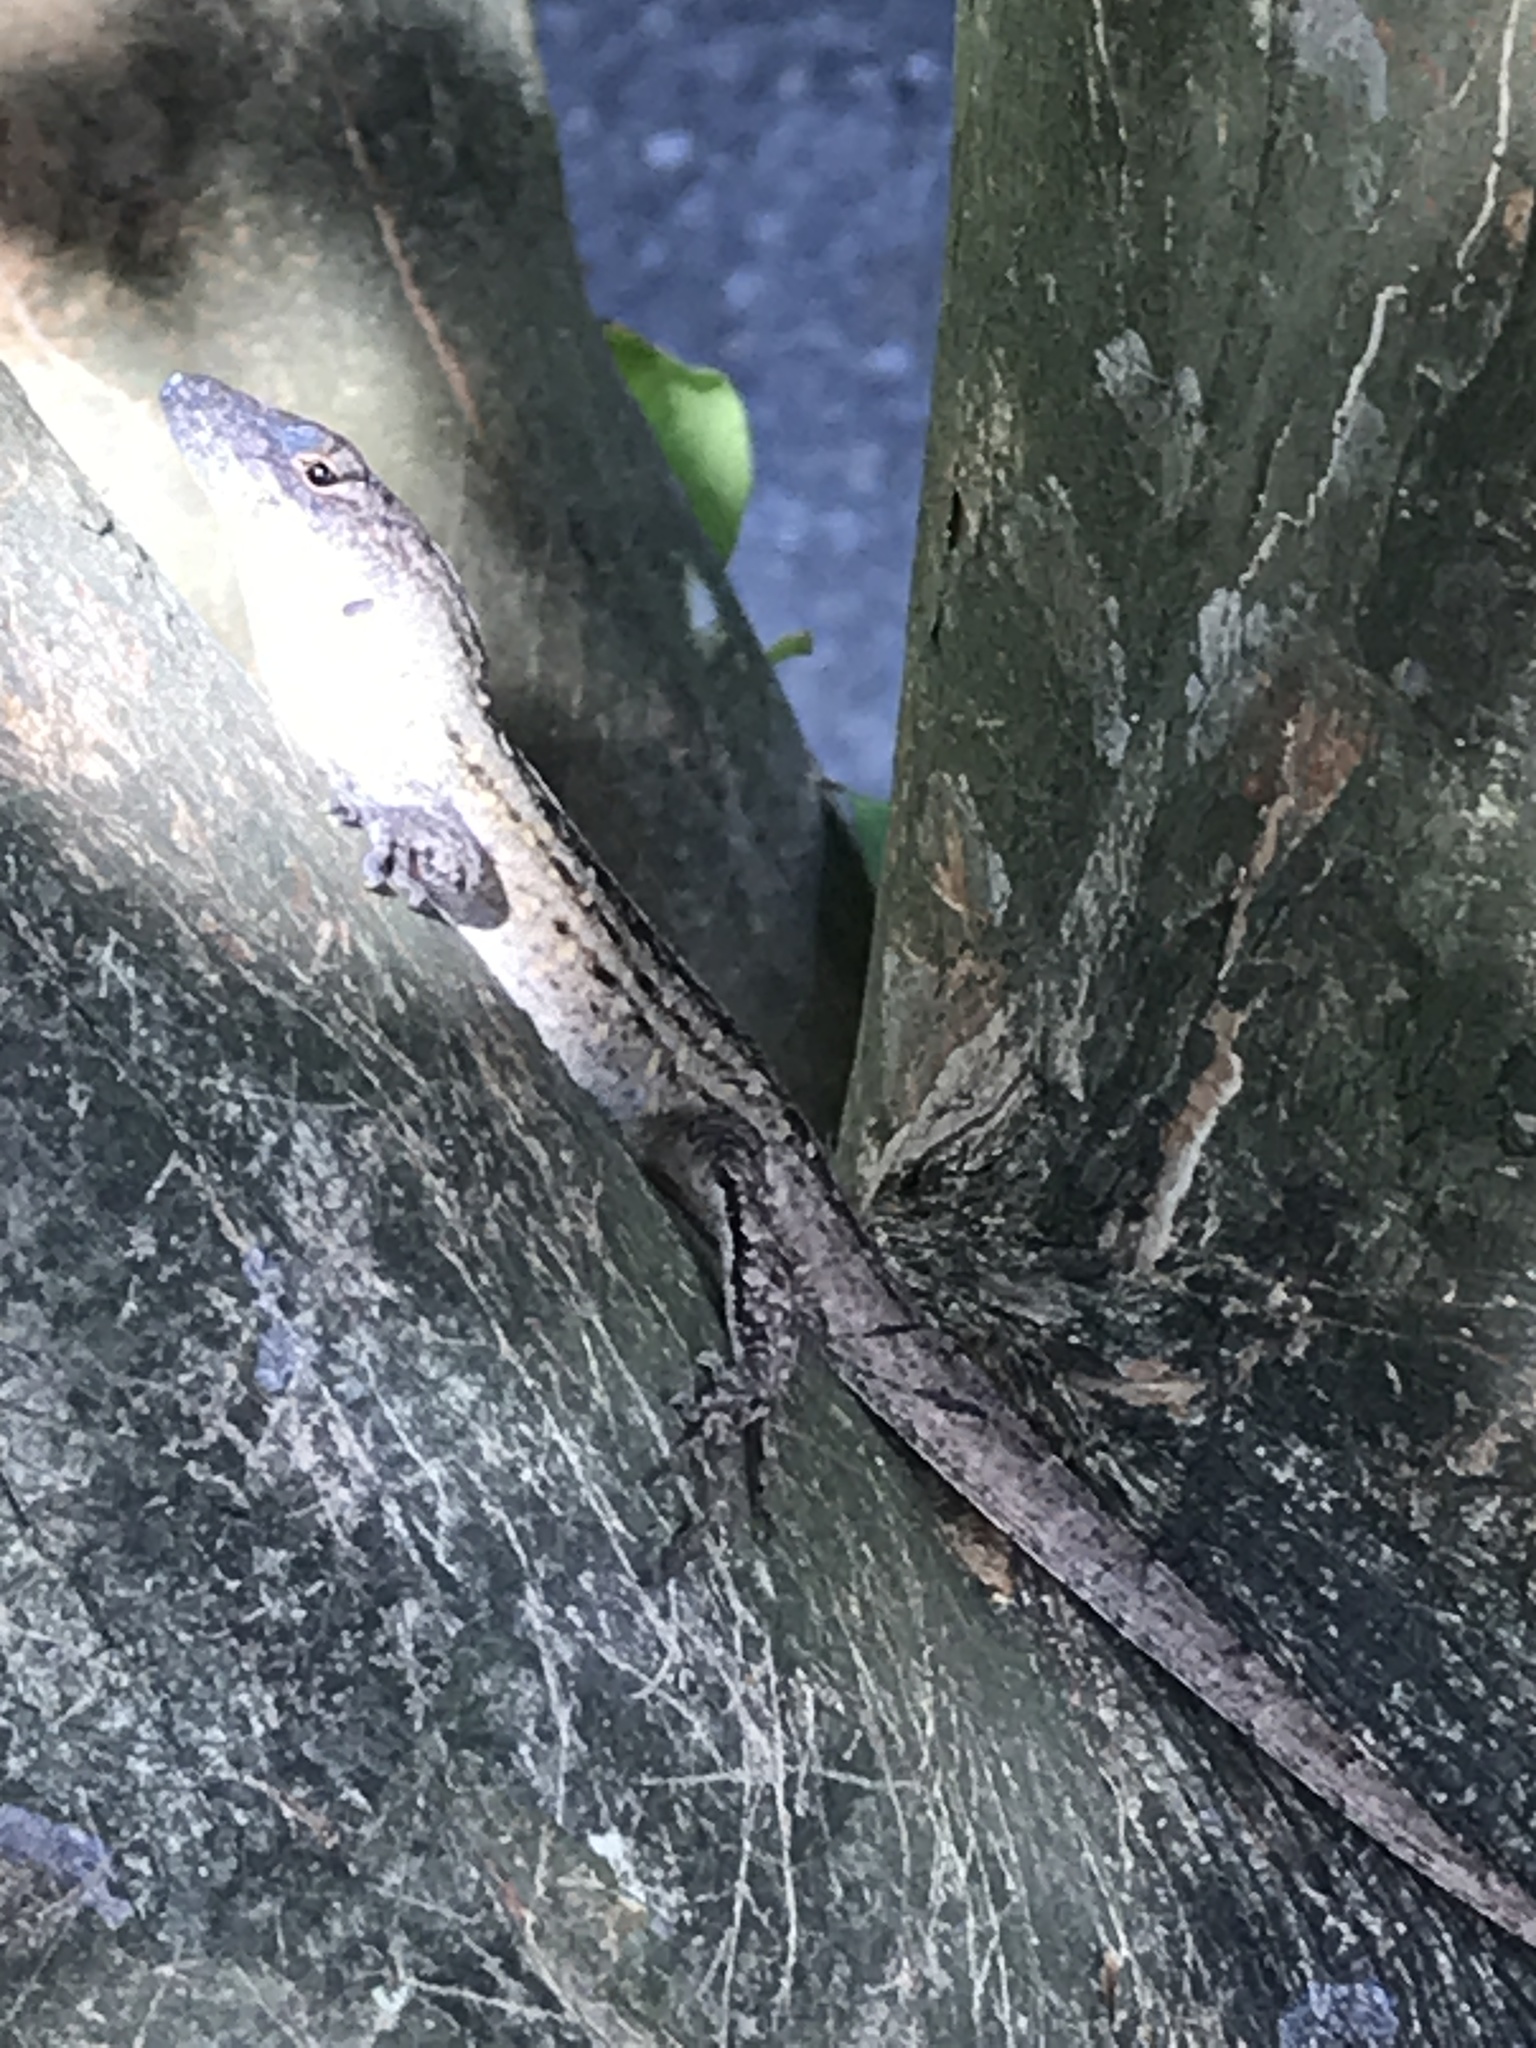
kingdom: Animalia
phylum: Chordata
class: Squamata
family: Dactyloidae
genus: Anolis
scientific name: Anolis sagrei
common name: Brown anole
